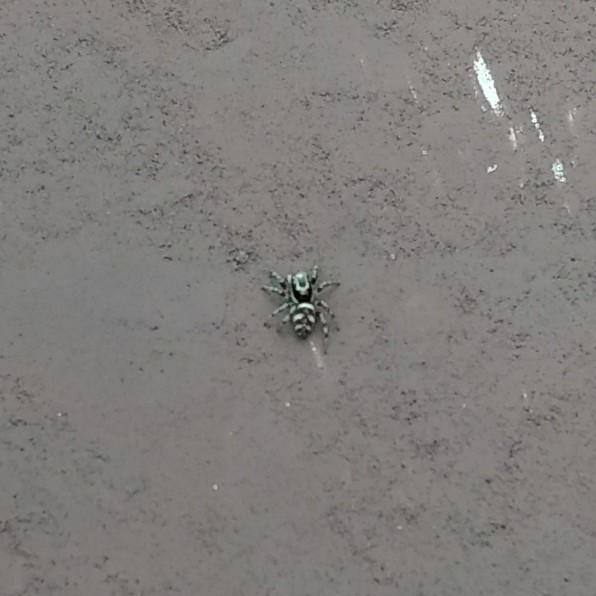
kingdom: Animalia
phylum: Arthropoda
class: Arachnida
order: Araneae
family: Salticidae
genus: Salticus
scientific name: Salticus scenicus
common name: Zebra jumper
